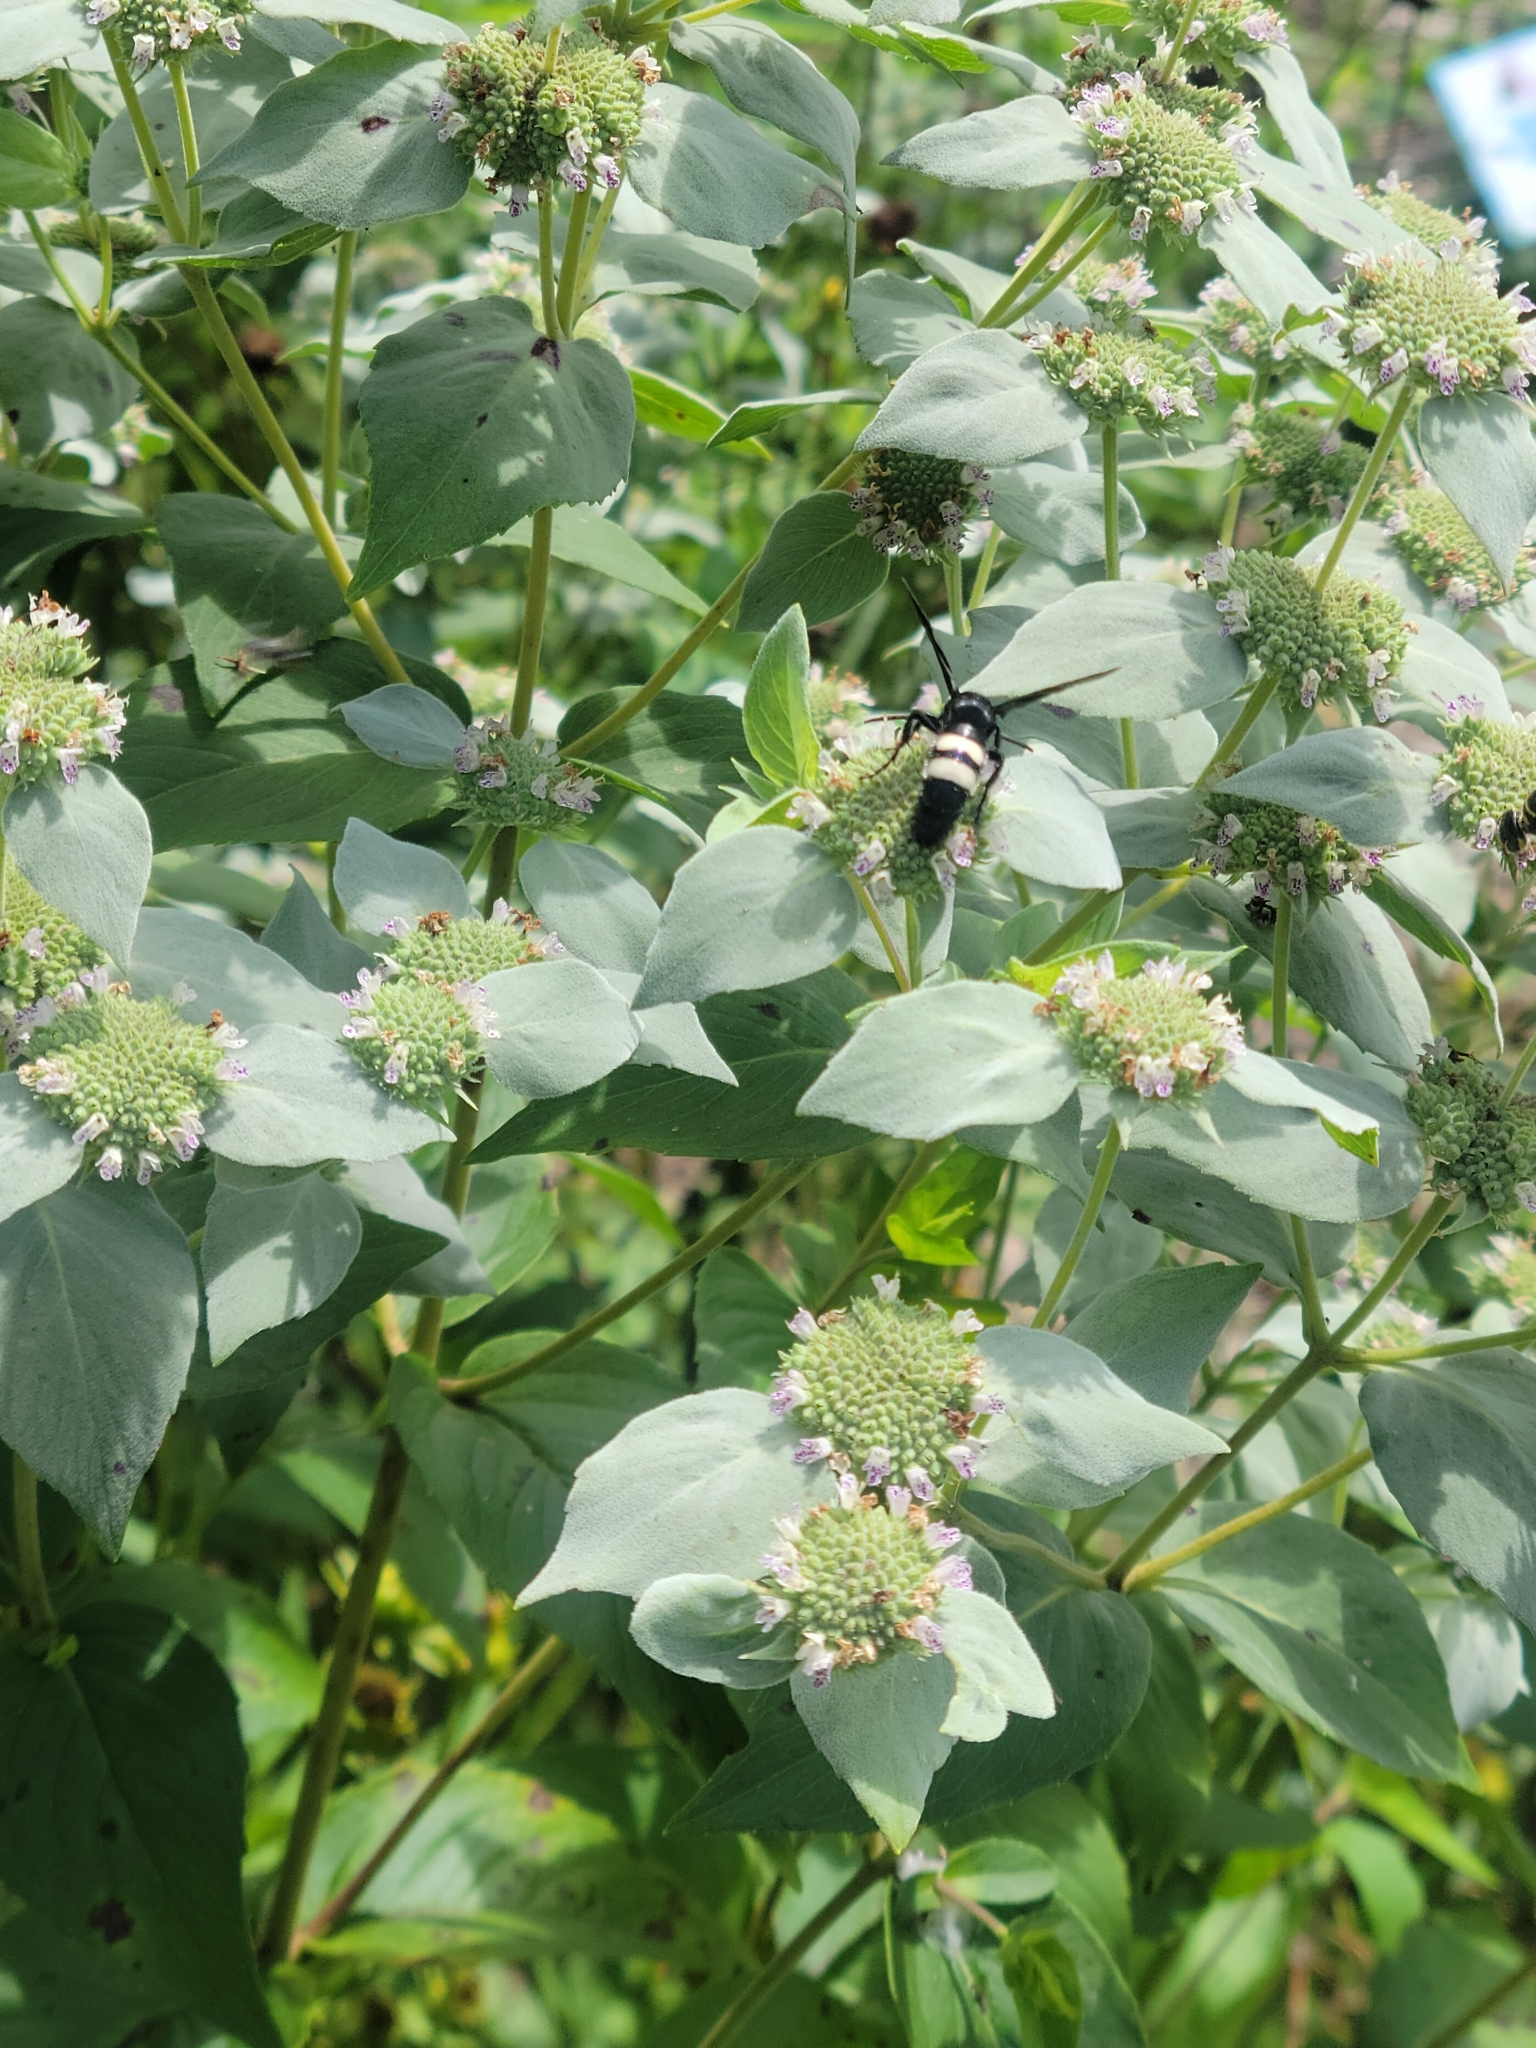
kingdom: Animalia
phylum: Arthropoda
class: Insecta
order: Hymenoptera
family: Scoliidae
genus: Scolia
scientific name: Scolia bicincta
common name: Double-banded scoliid wasp
